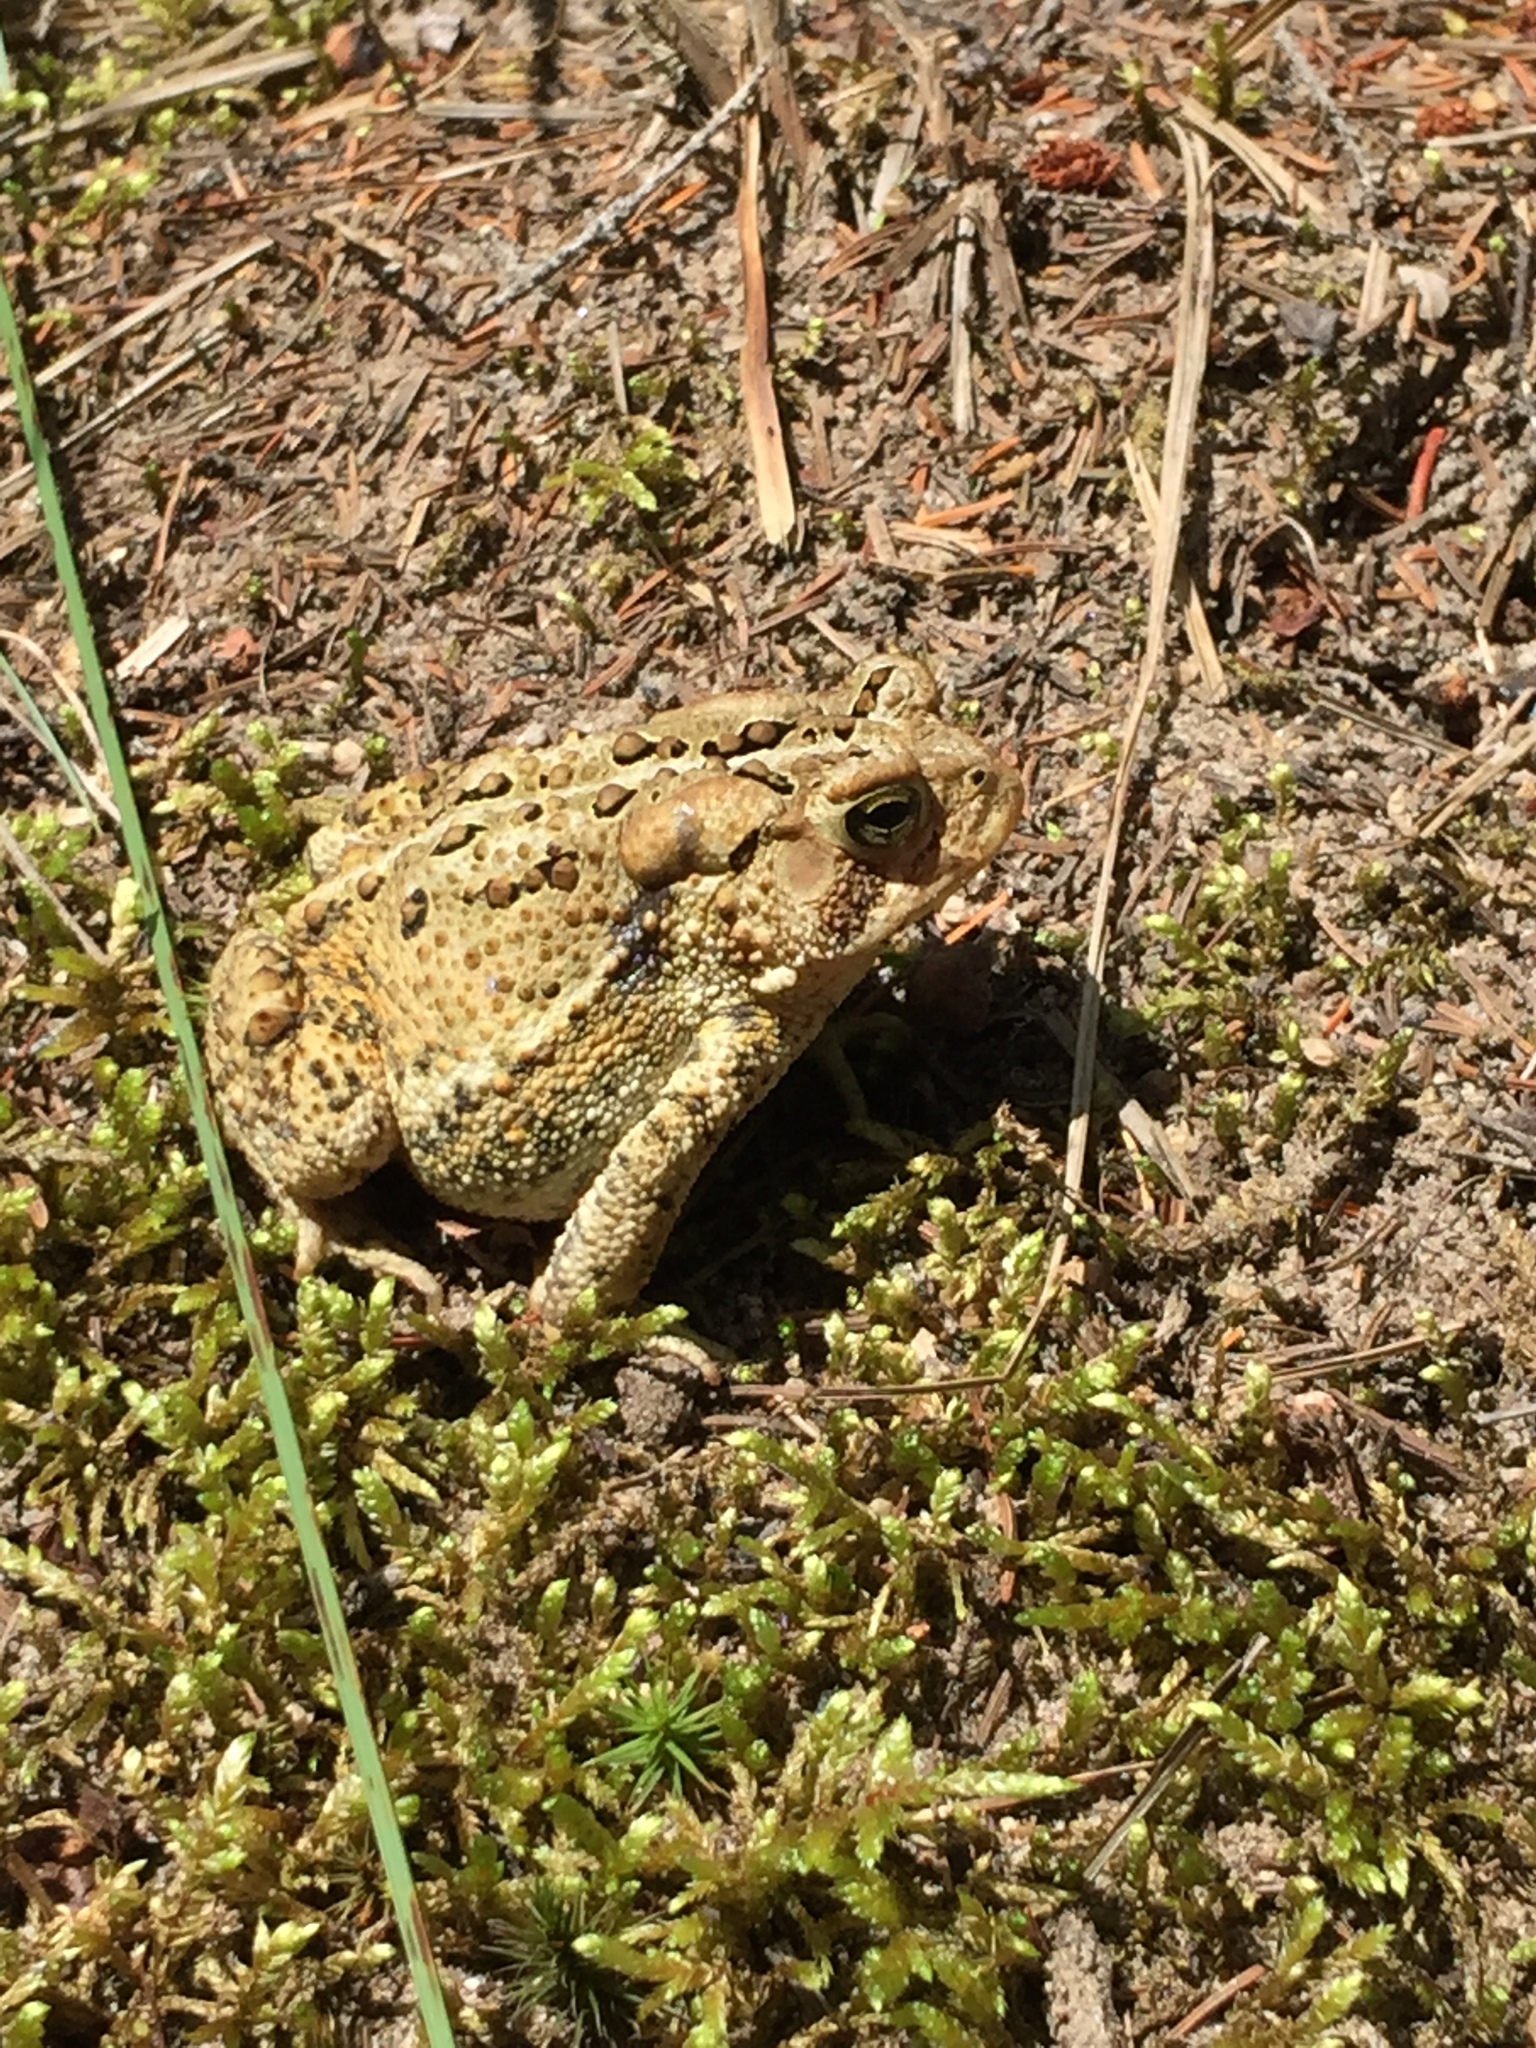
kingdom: Animalia
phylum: Chordata
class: Amphibia
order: Anura
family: Bufonidae
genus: Anaxyrus
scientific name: Anaxyrus americanus
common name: American toad
